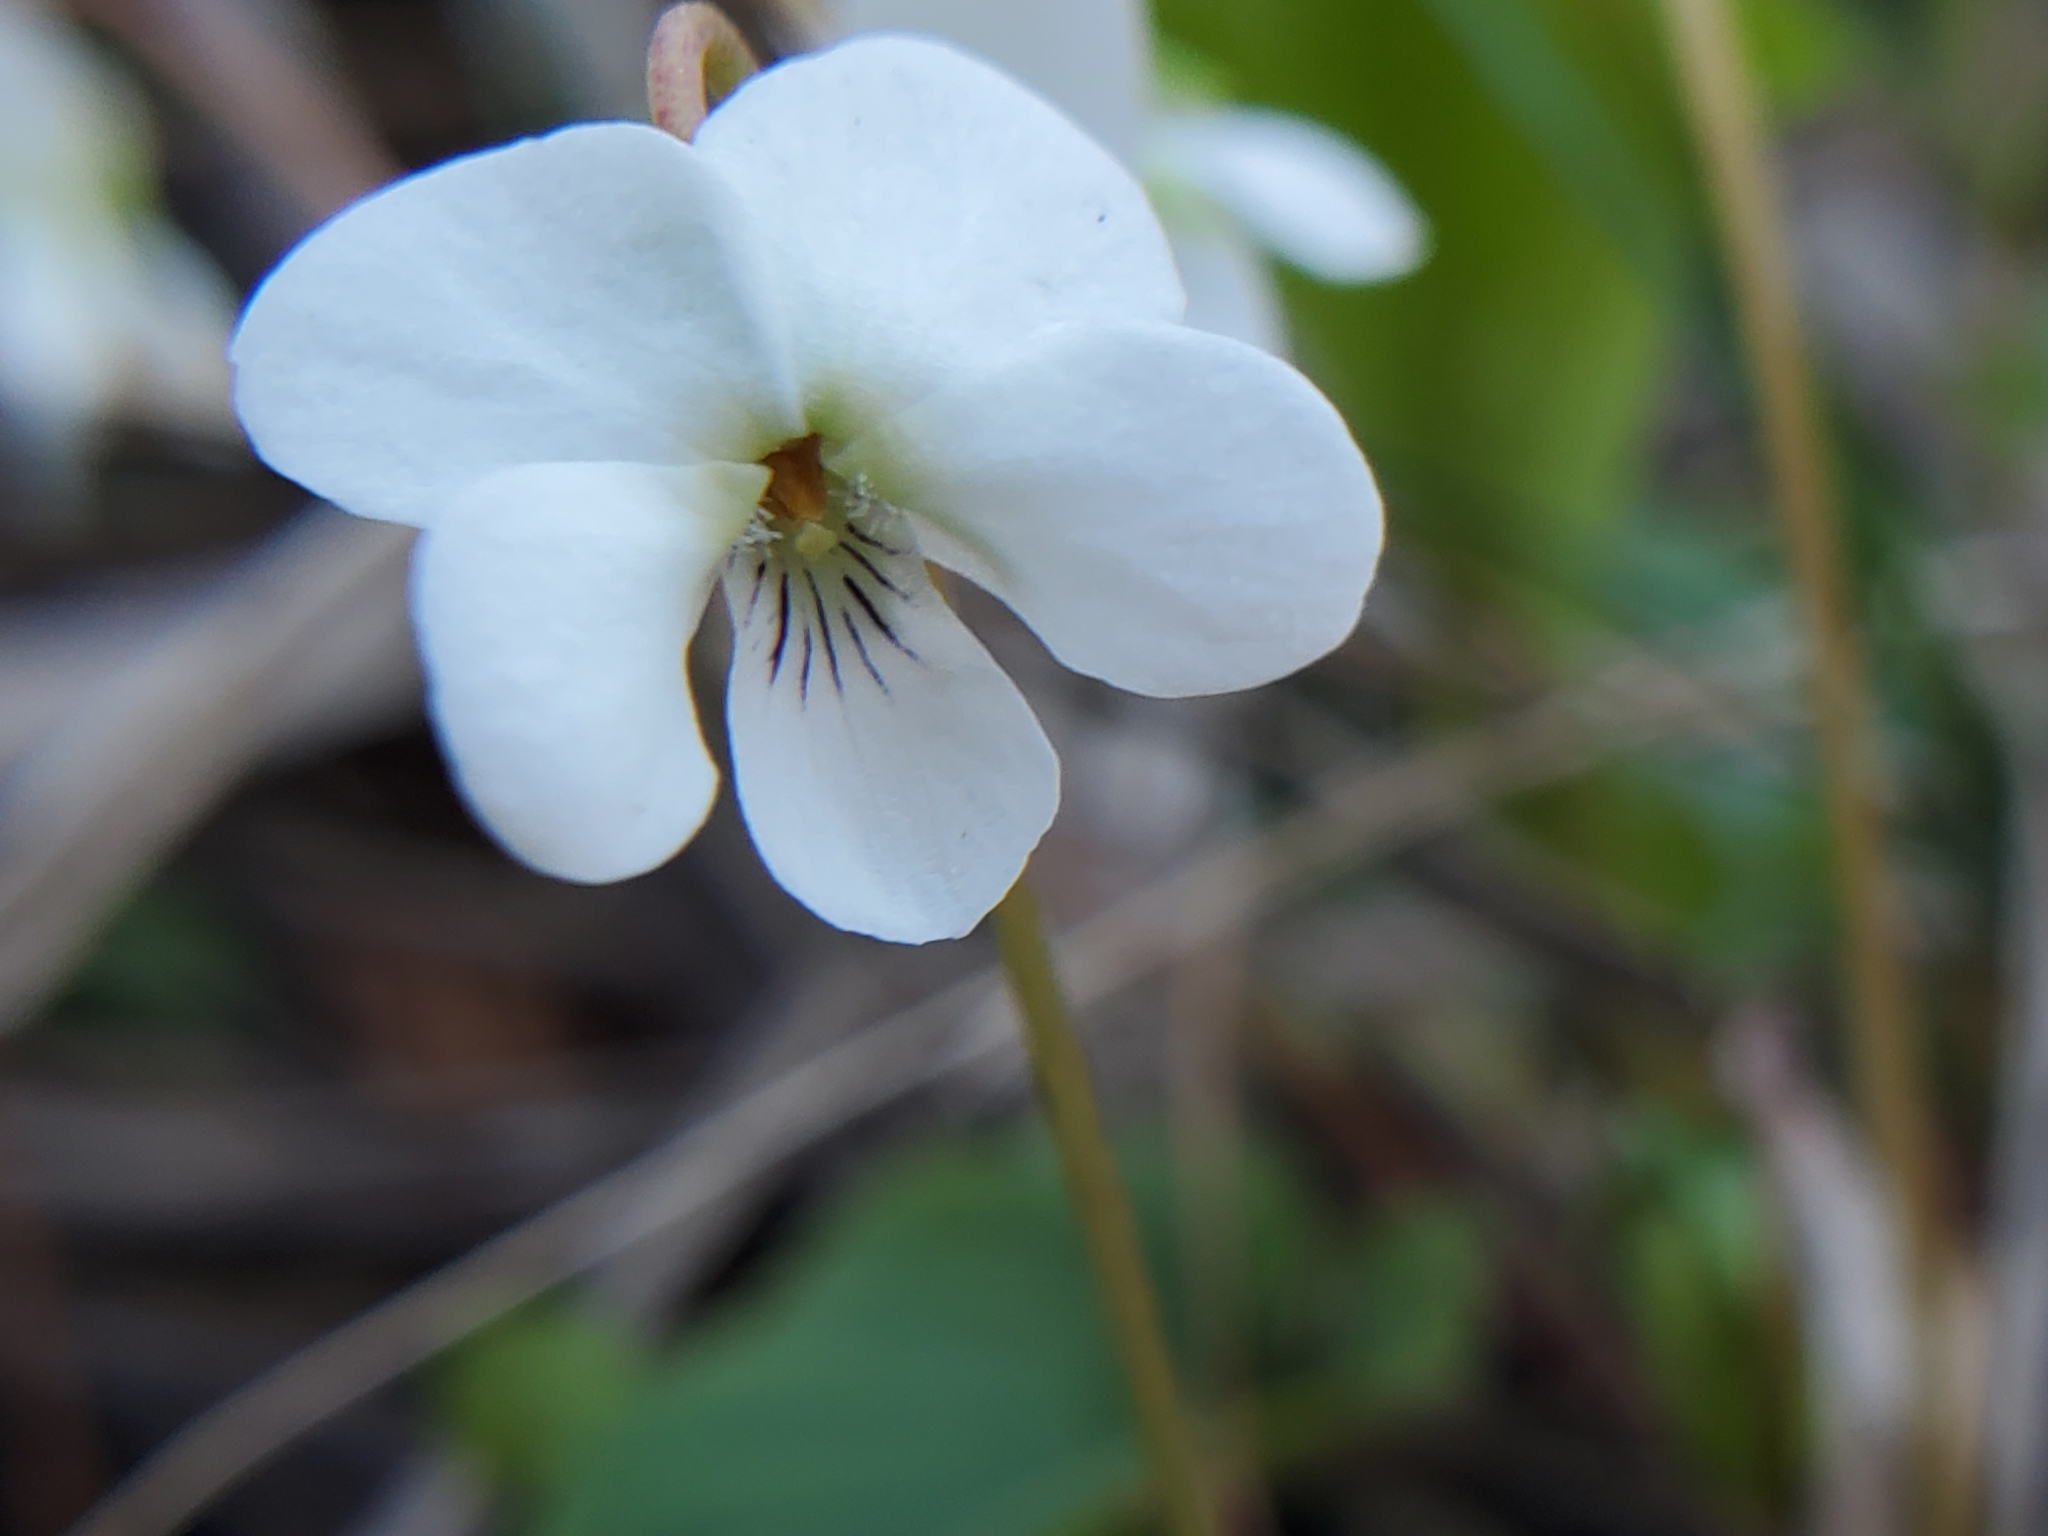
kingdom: Plantae
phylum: Tracheophyta
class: Magnoliopsida
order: Malpighiales
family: Violaceae
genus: Viola
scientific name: Viola primulifolia
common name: Primrose-leaf violet
